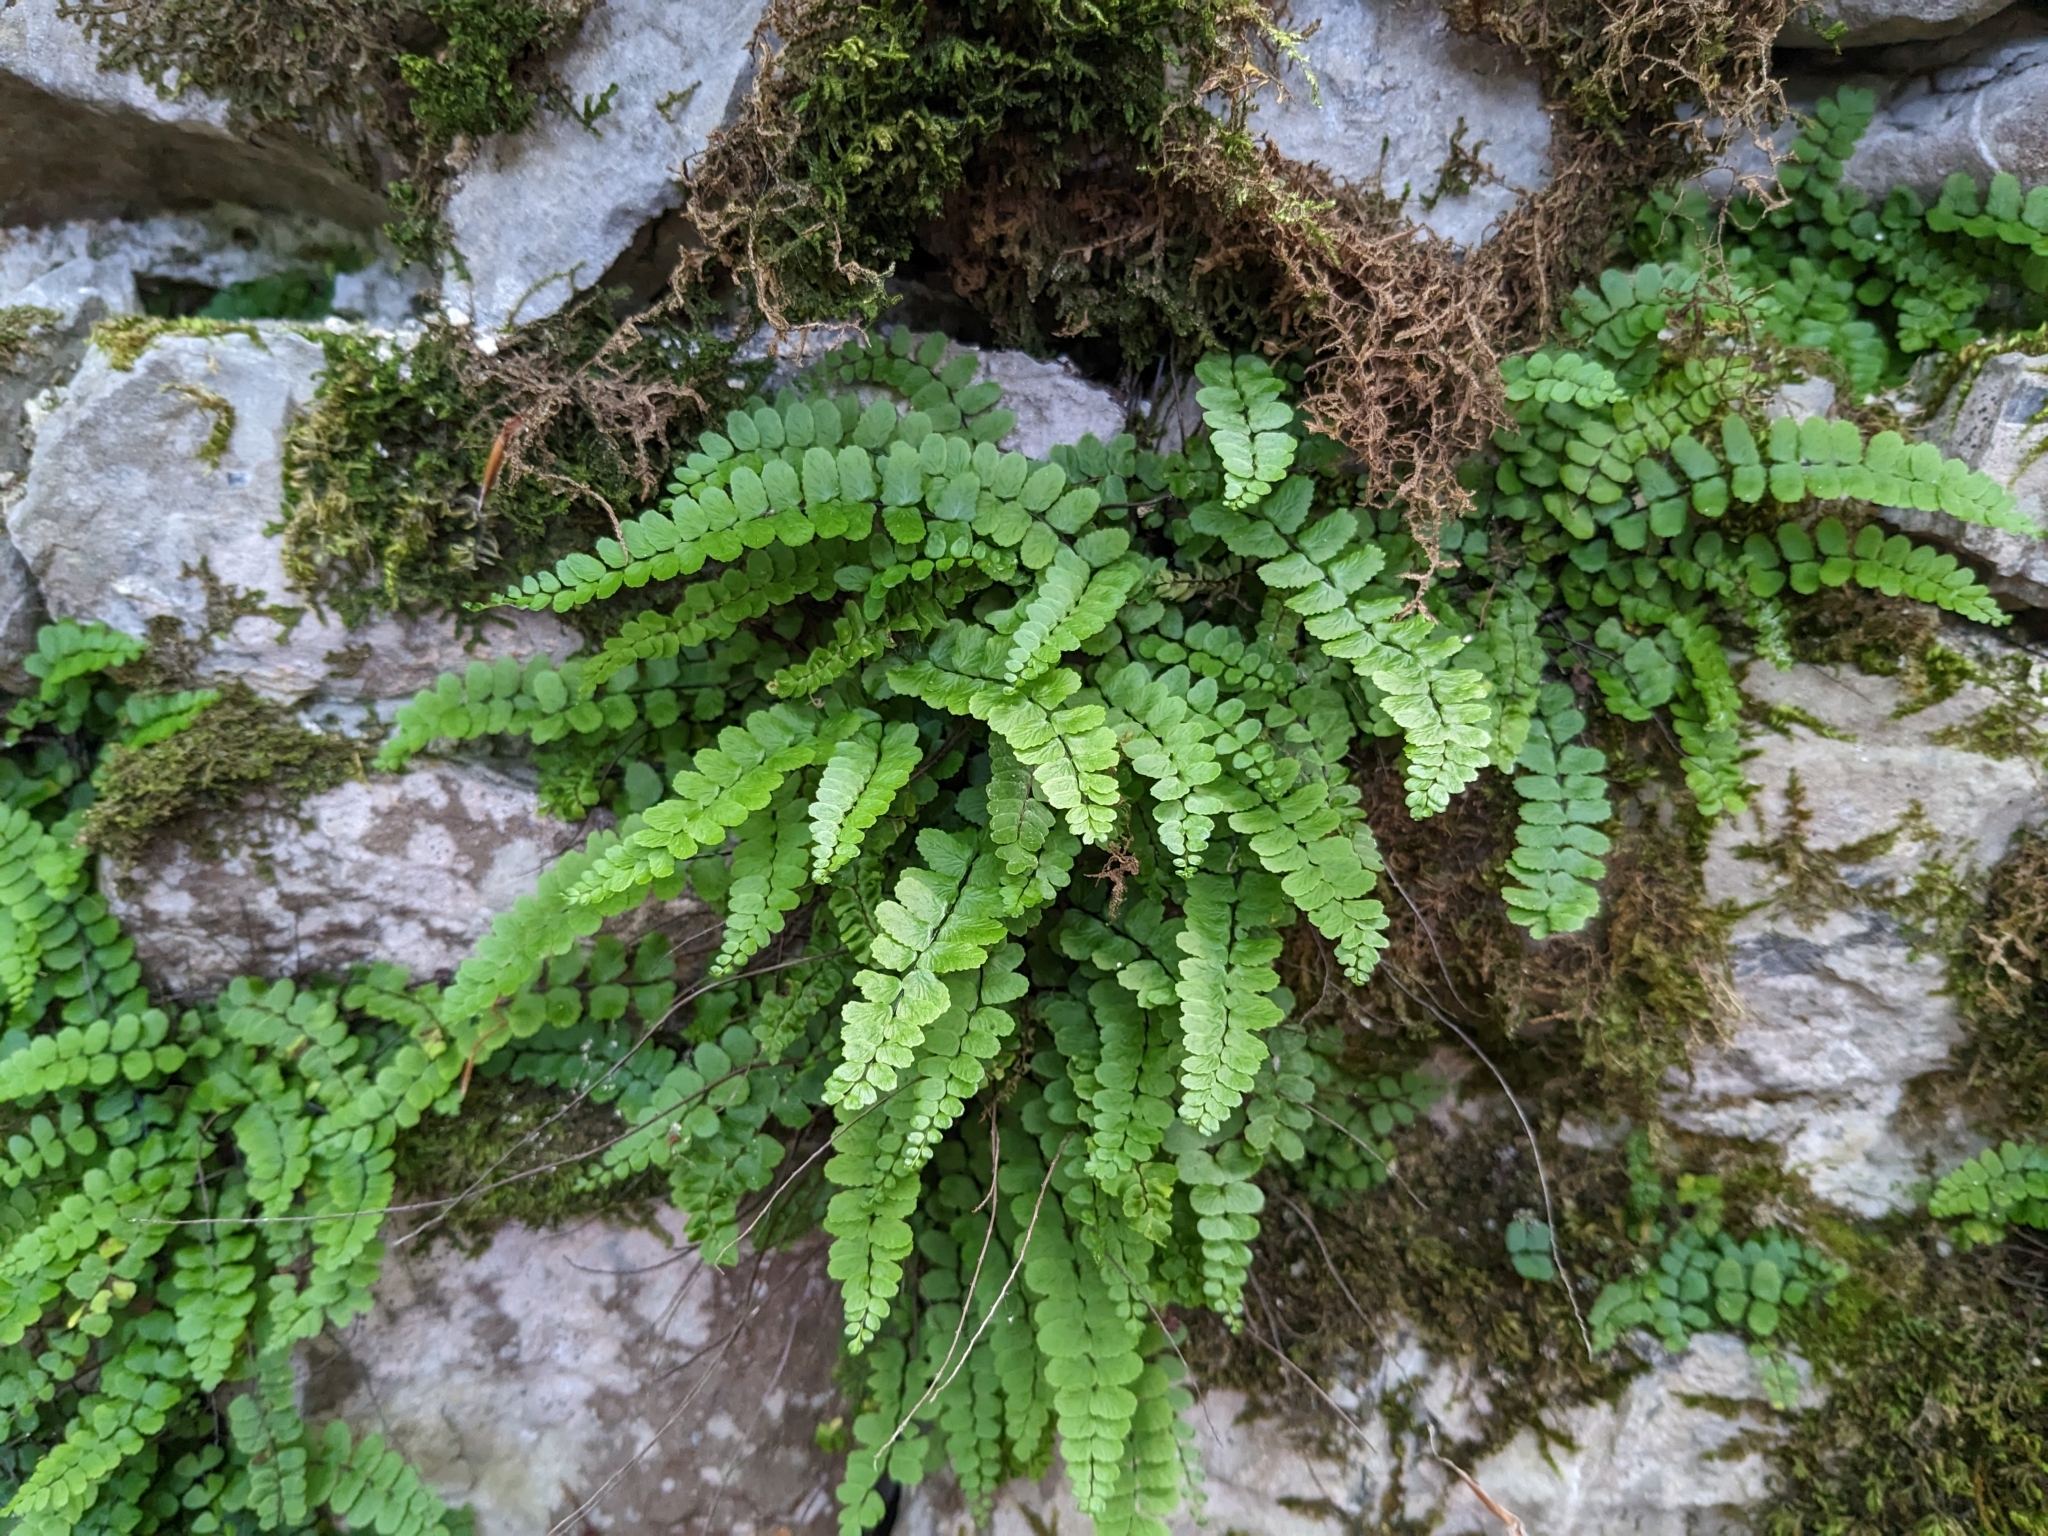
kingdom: Plantae
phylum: Tracheophyta
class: Polypodiopsida
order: Polypodiales
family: Aspleniaceae
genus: Asplenium
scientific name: Asplenium trichomanes
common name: Maidenhair spleenwort
